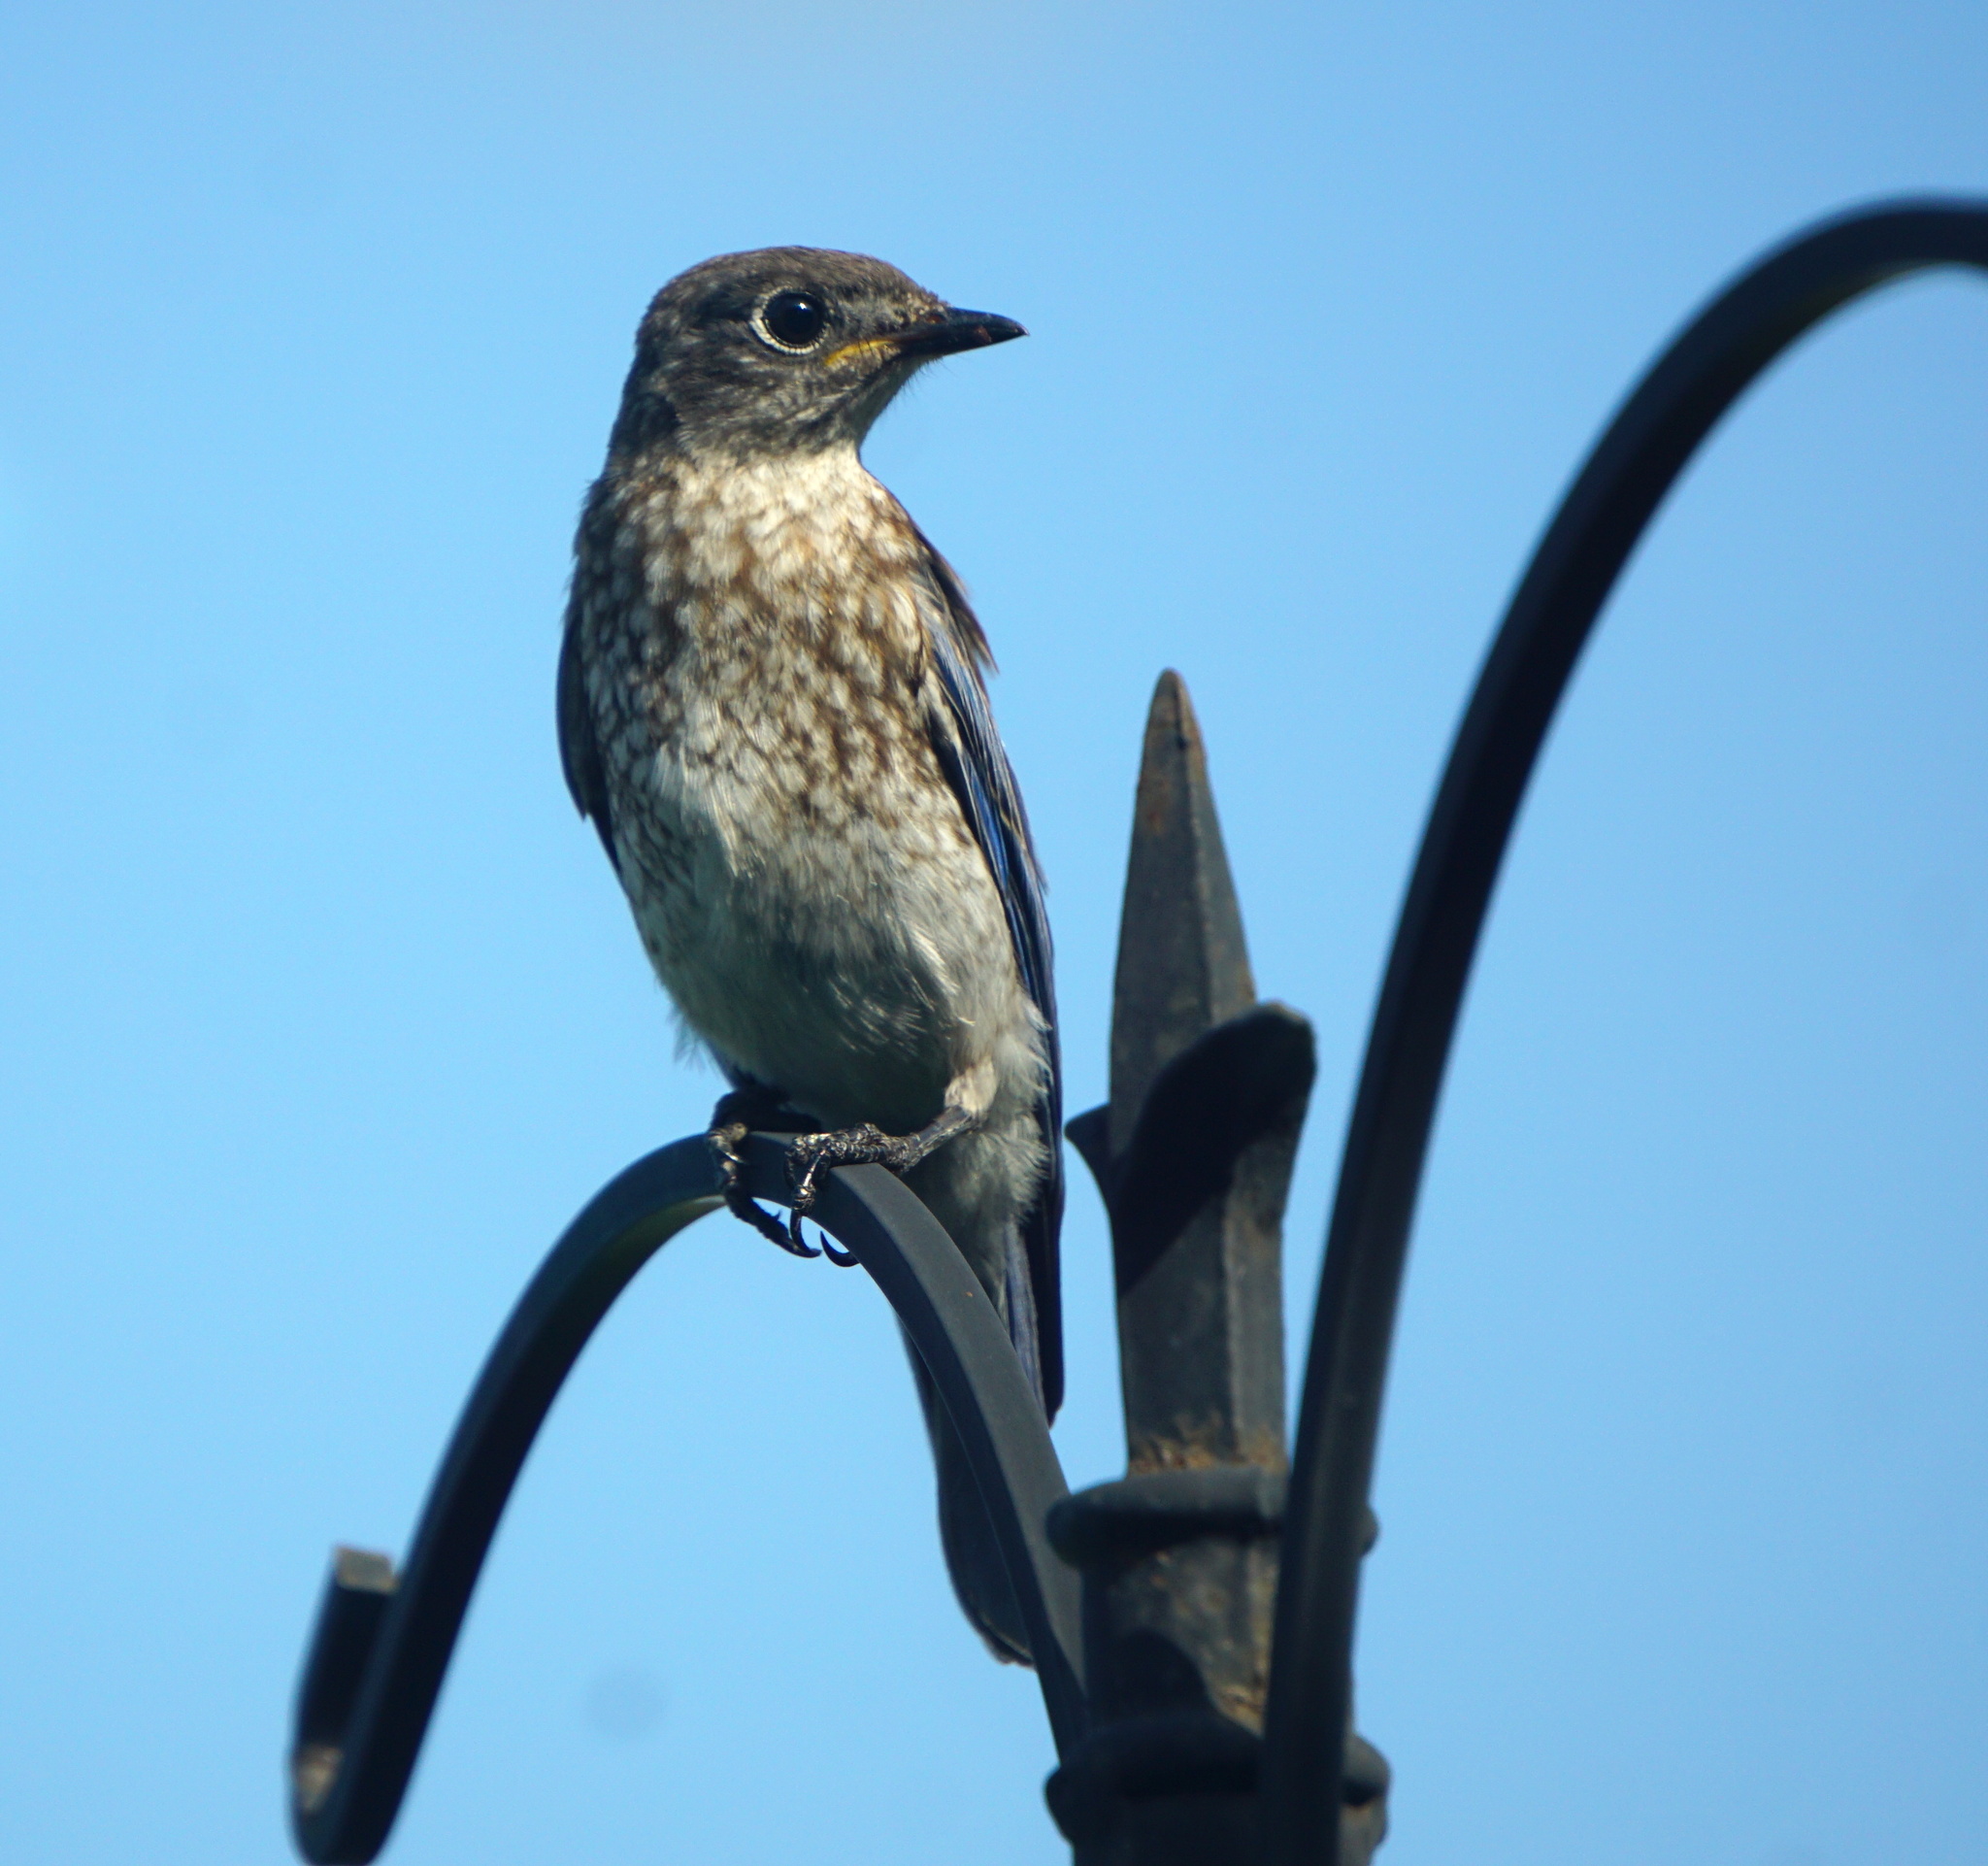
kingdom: Animalia
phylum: Chordata
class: Aves
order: Passeriformes
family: Turdidae
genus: Sialia
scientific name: Sialia sialis
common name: Eastern bluebird
